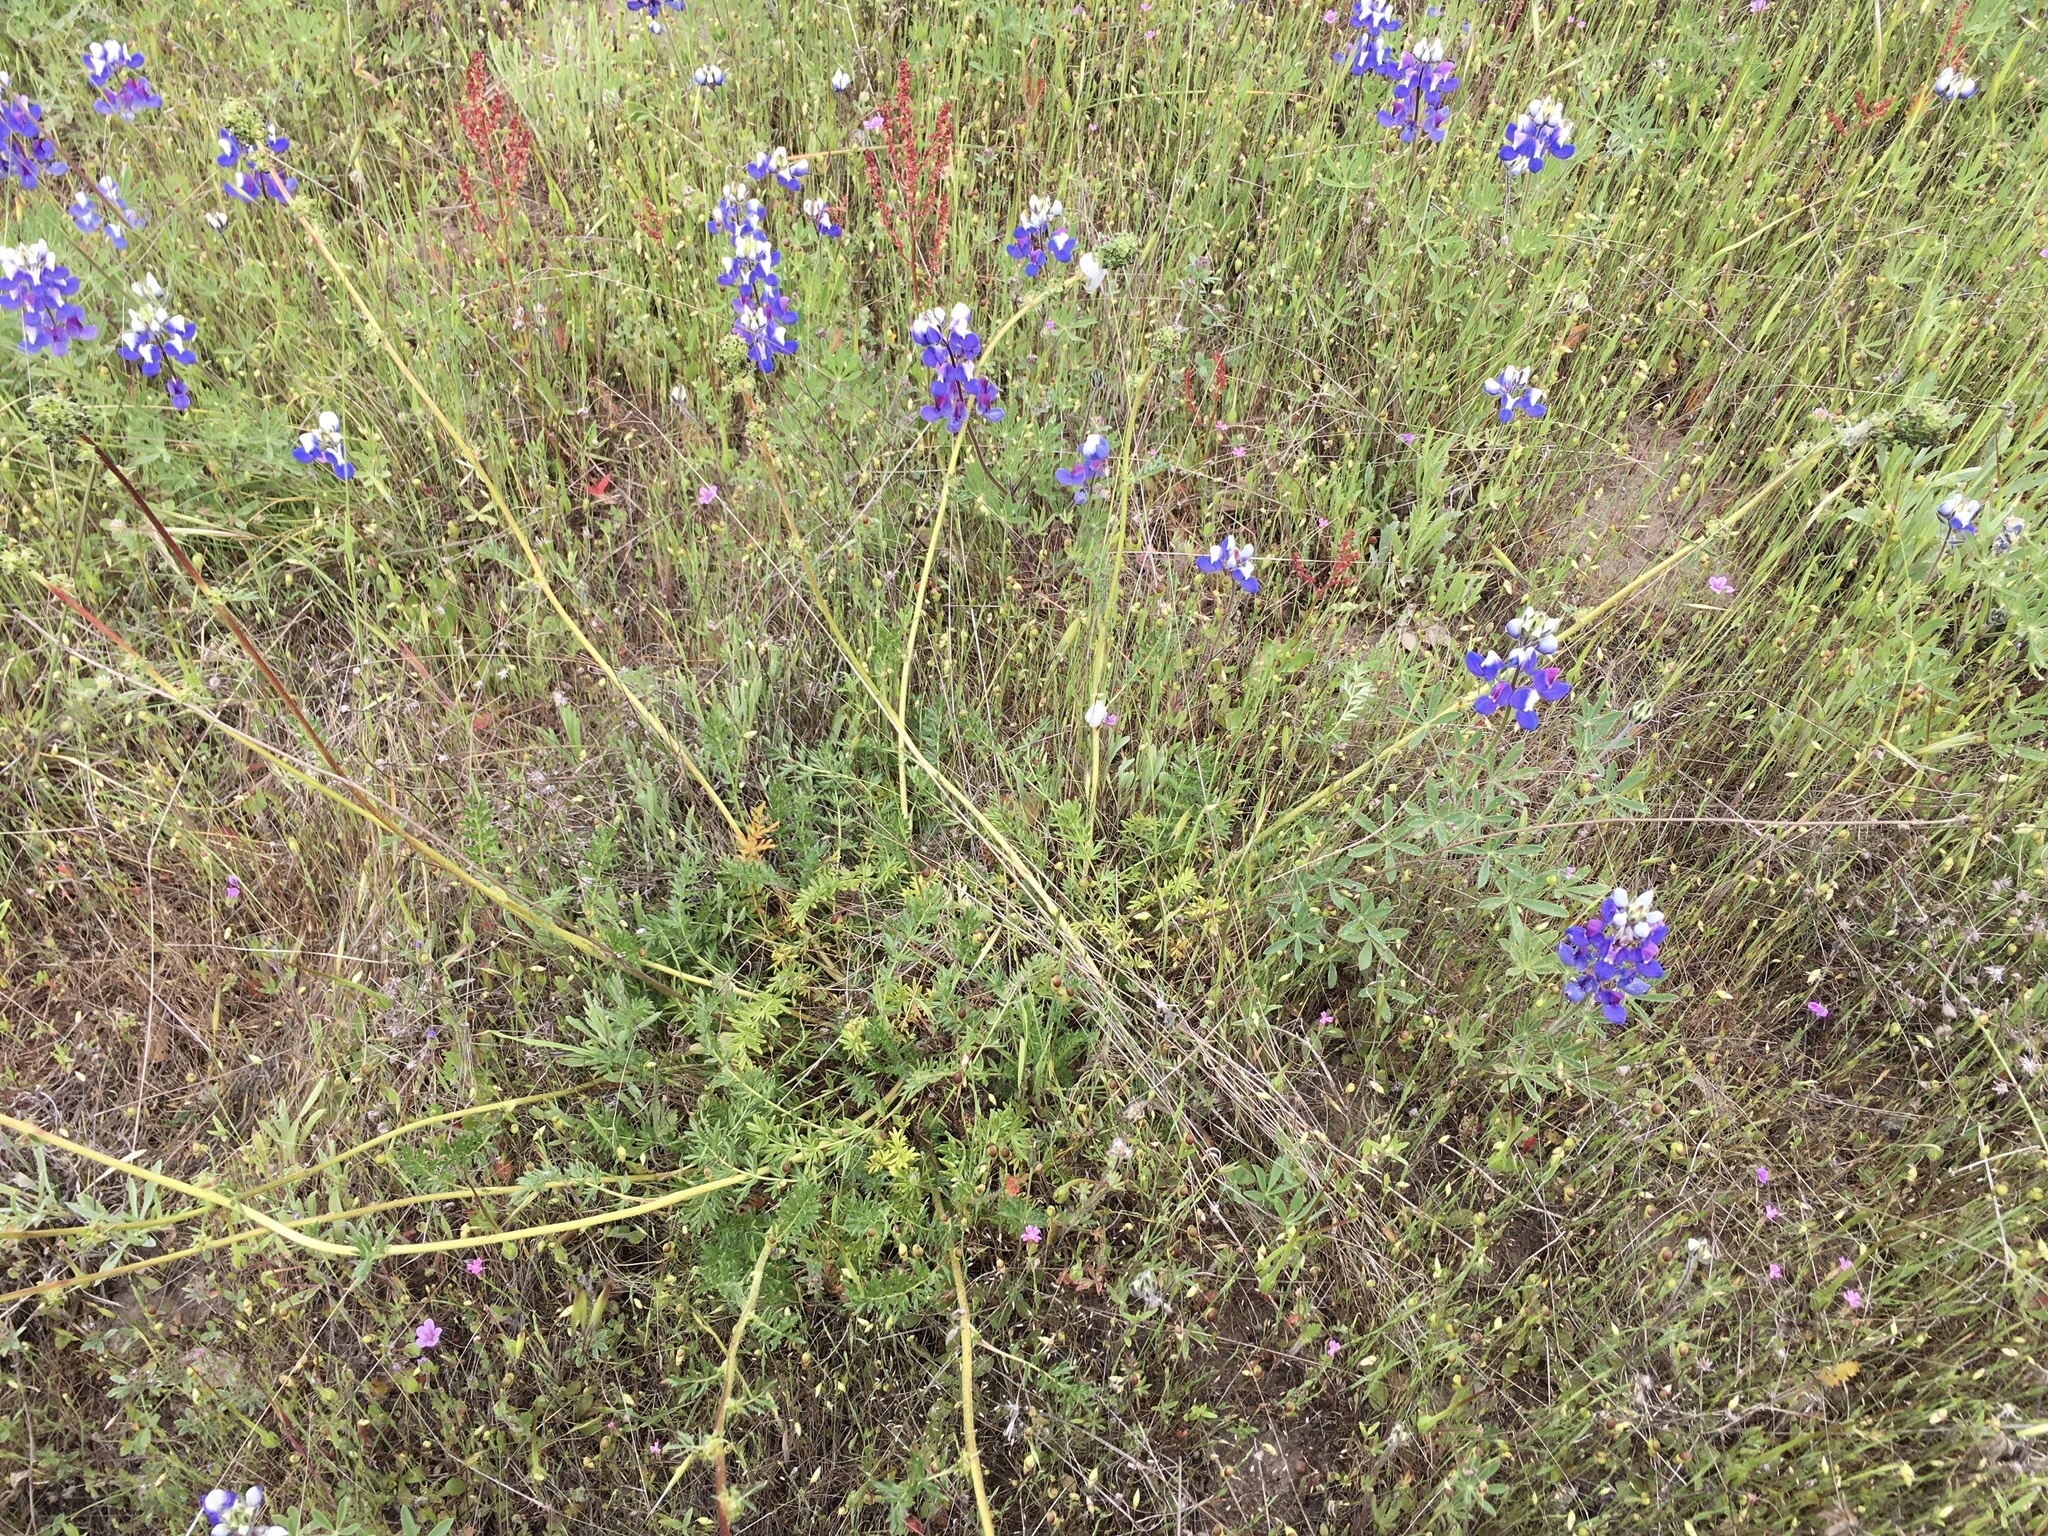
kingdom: Plantae
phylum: Tracheophyta
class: Magnoliopsida
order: Rosales
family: Rosaceae
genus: Acaena
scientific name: Acaena pinnatifida
